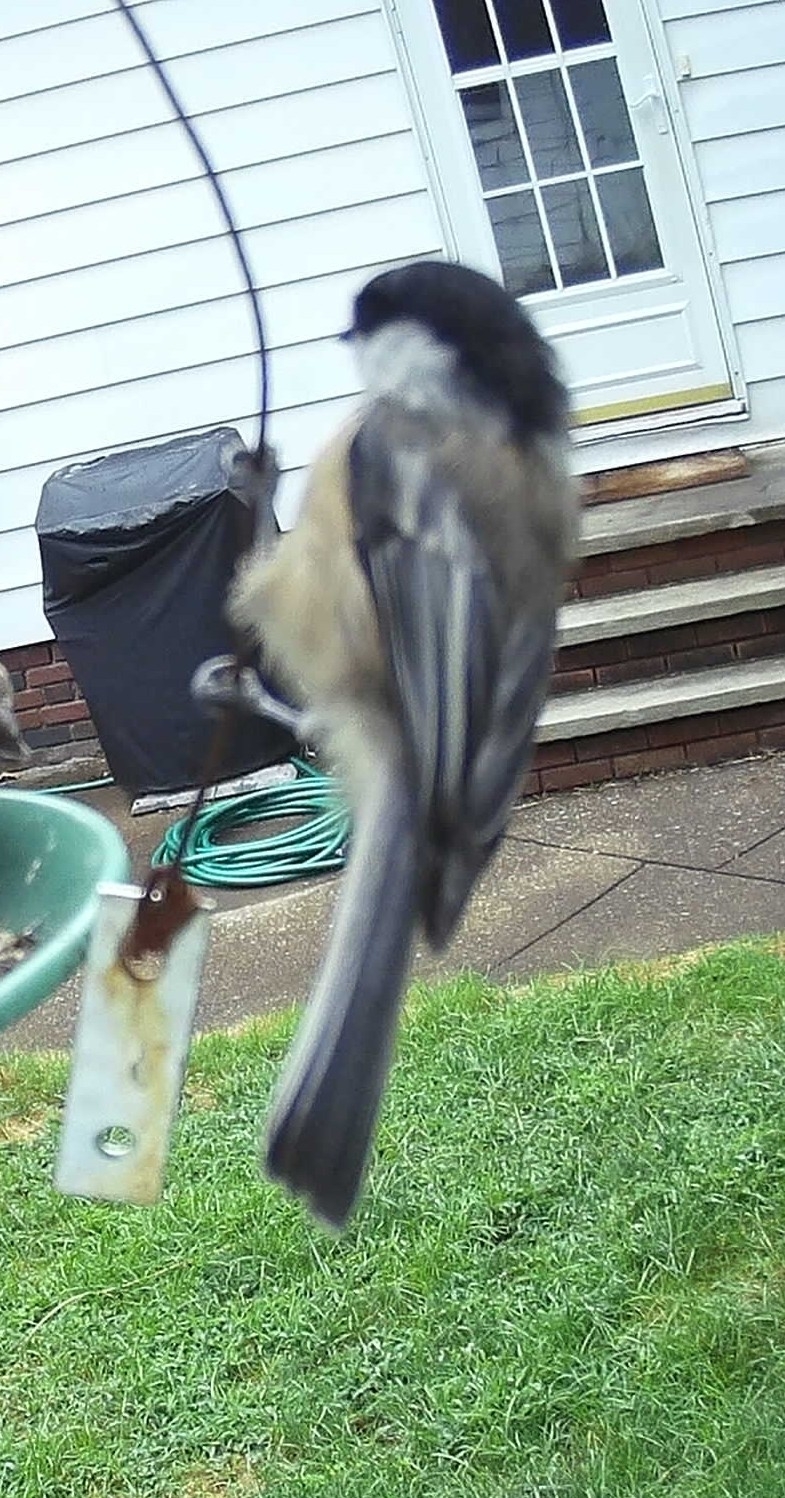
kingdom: Animalia
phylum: Chordata
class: Aves
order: Passeriformes
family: Paridae
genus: Poecile
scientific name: Poecile atricapillus
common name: Black-capped chickadee
